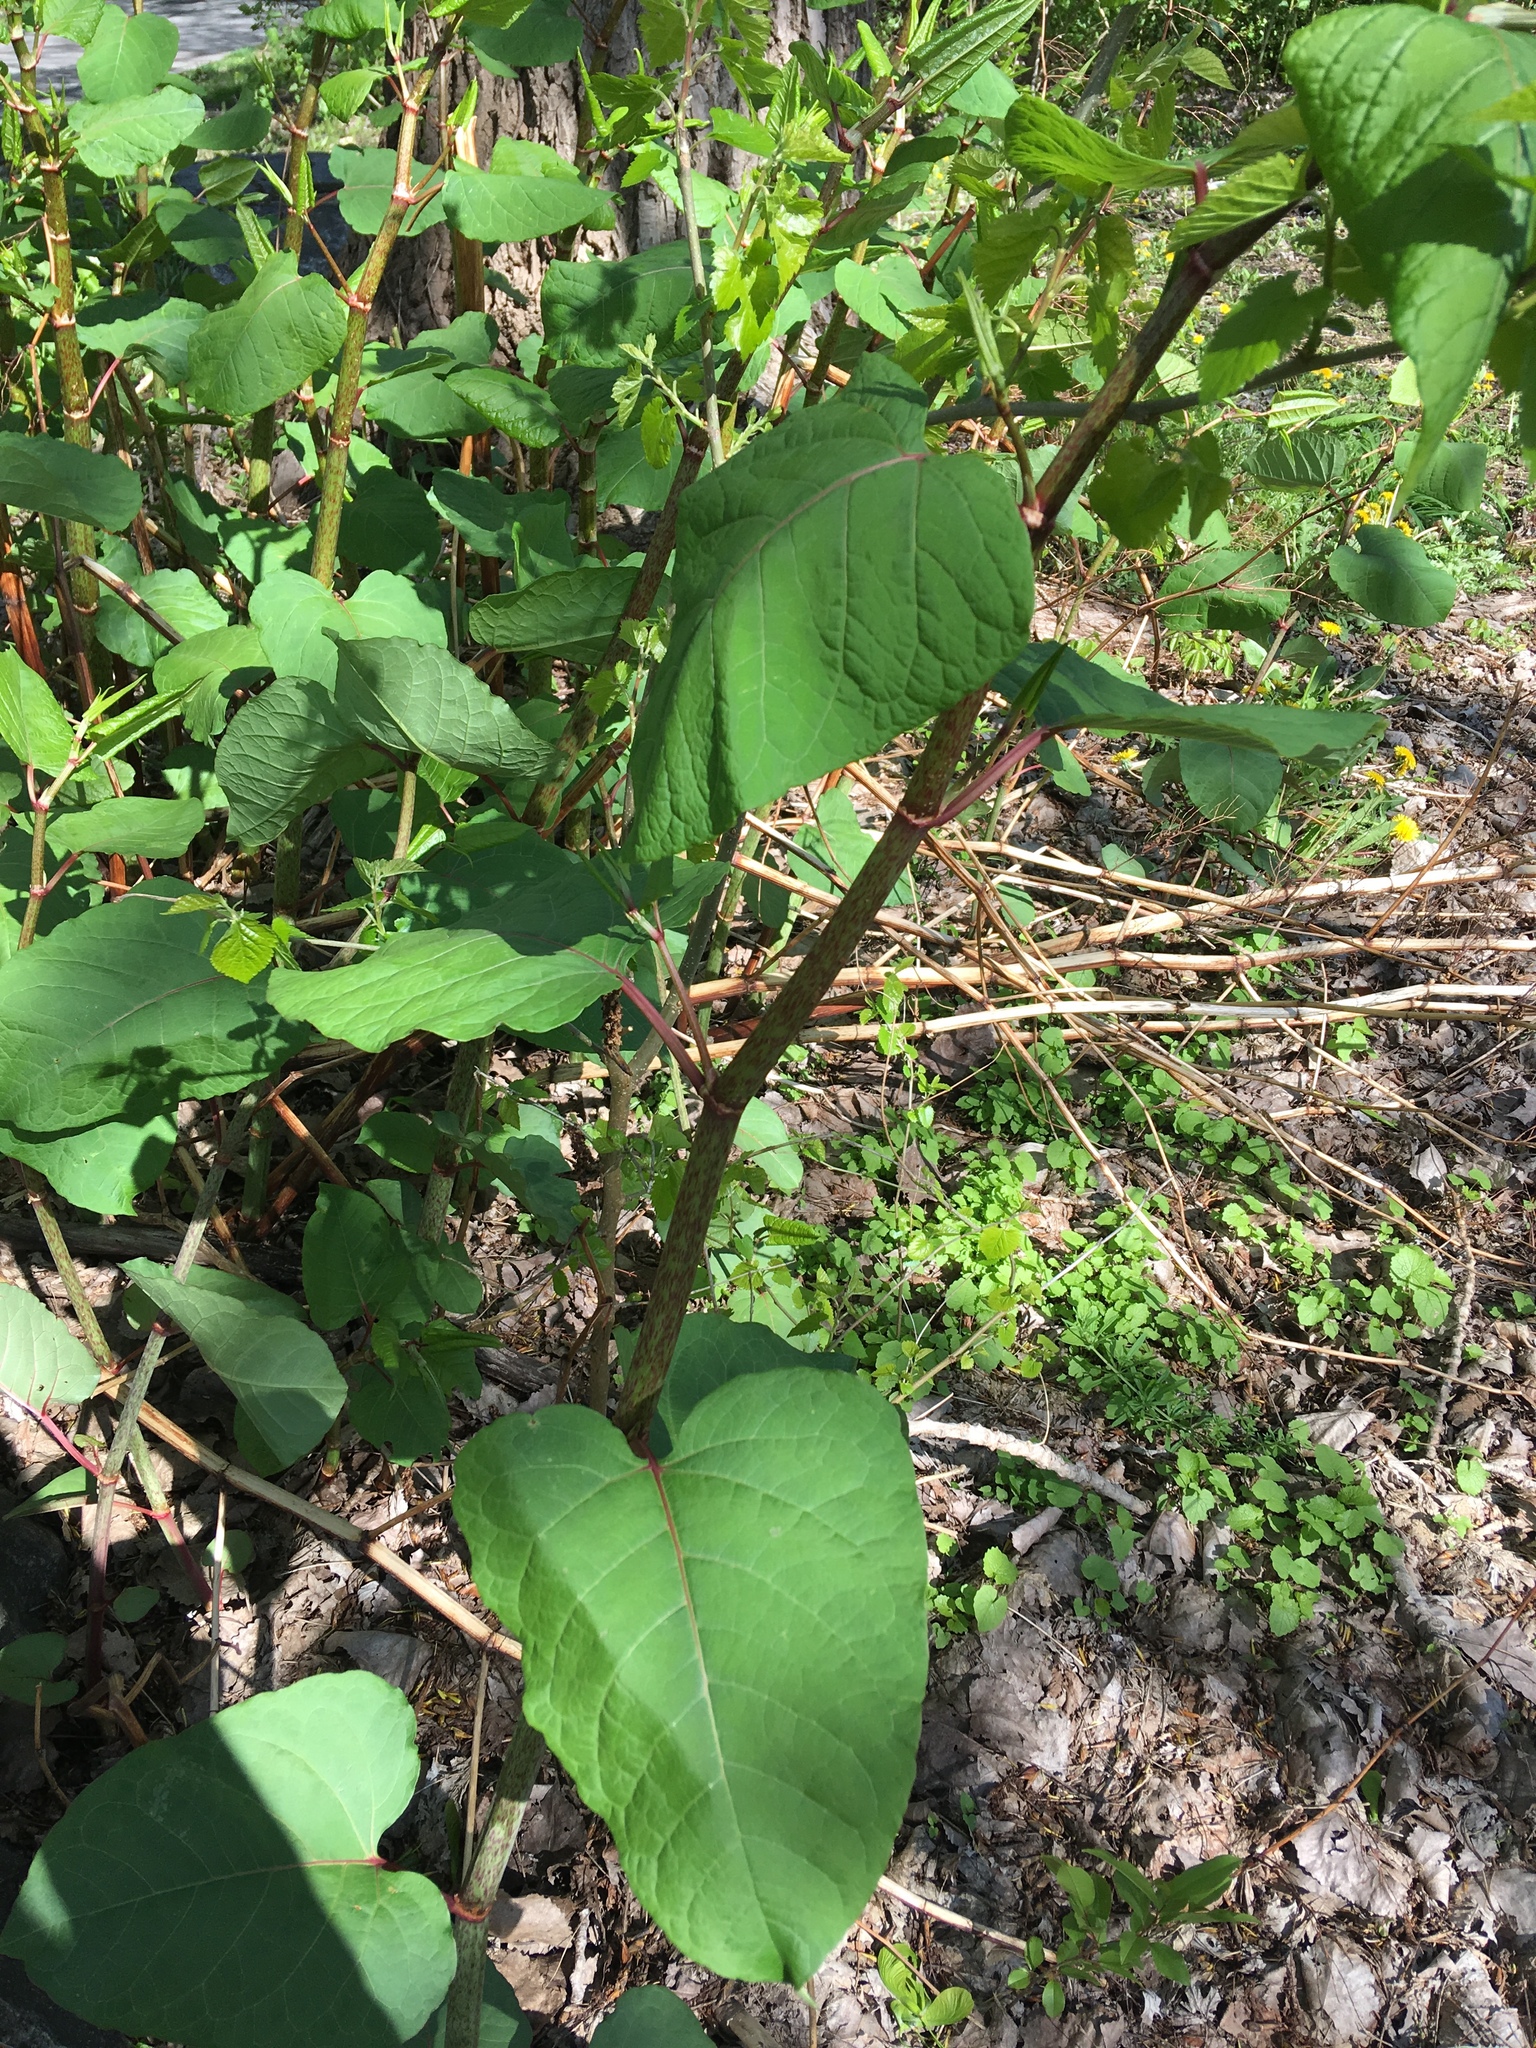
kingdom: Plantae
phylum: Tracheophyta
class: Magnoliopsida
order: Caryophyllales
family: Polygonaceae
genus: Reynoutria
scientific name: Reynoutria sachalinensis
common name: Giant knotweed
